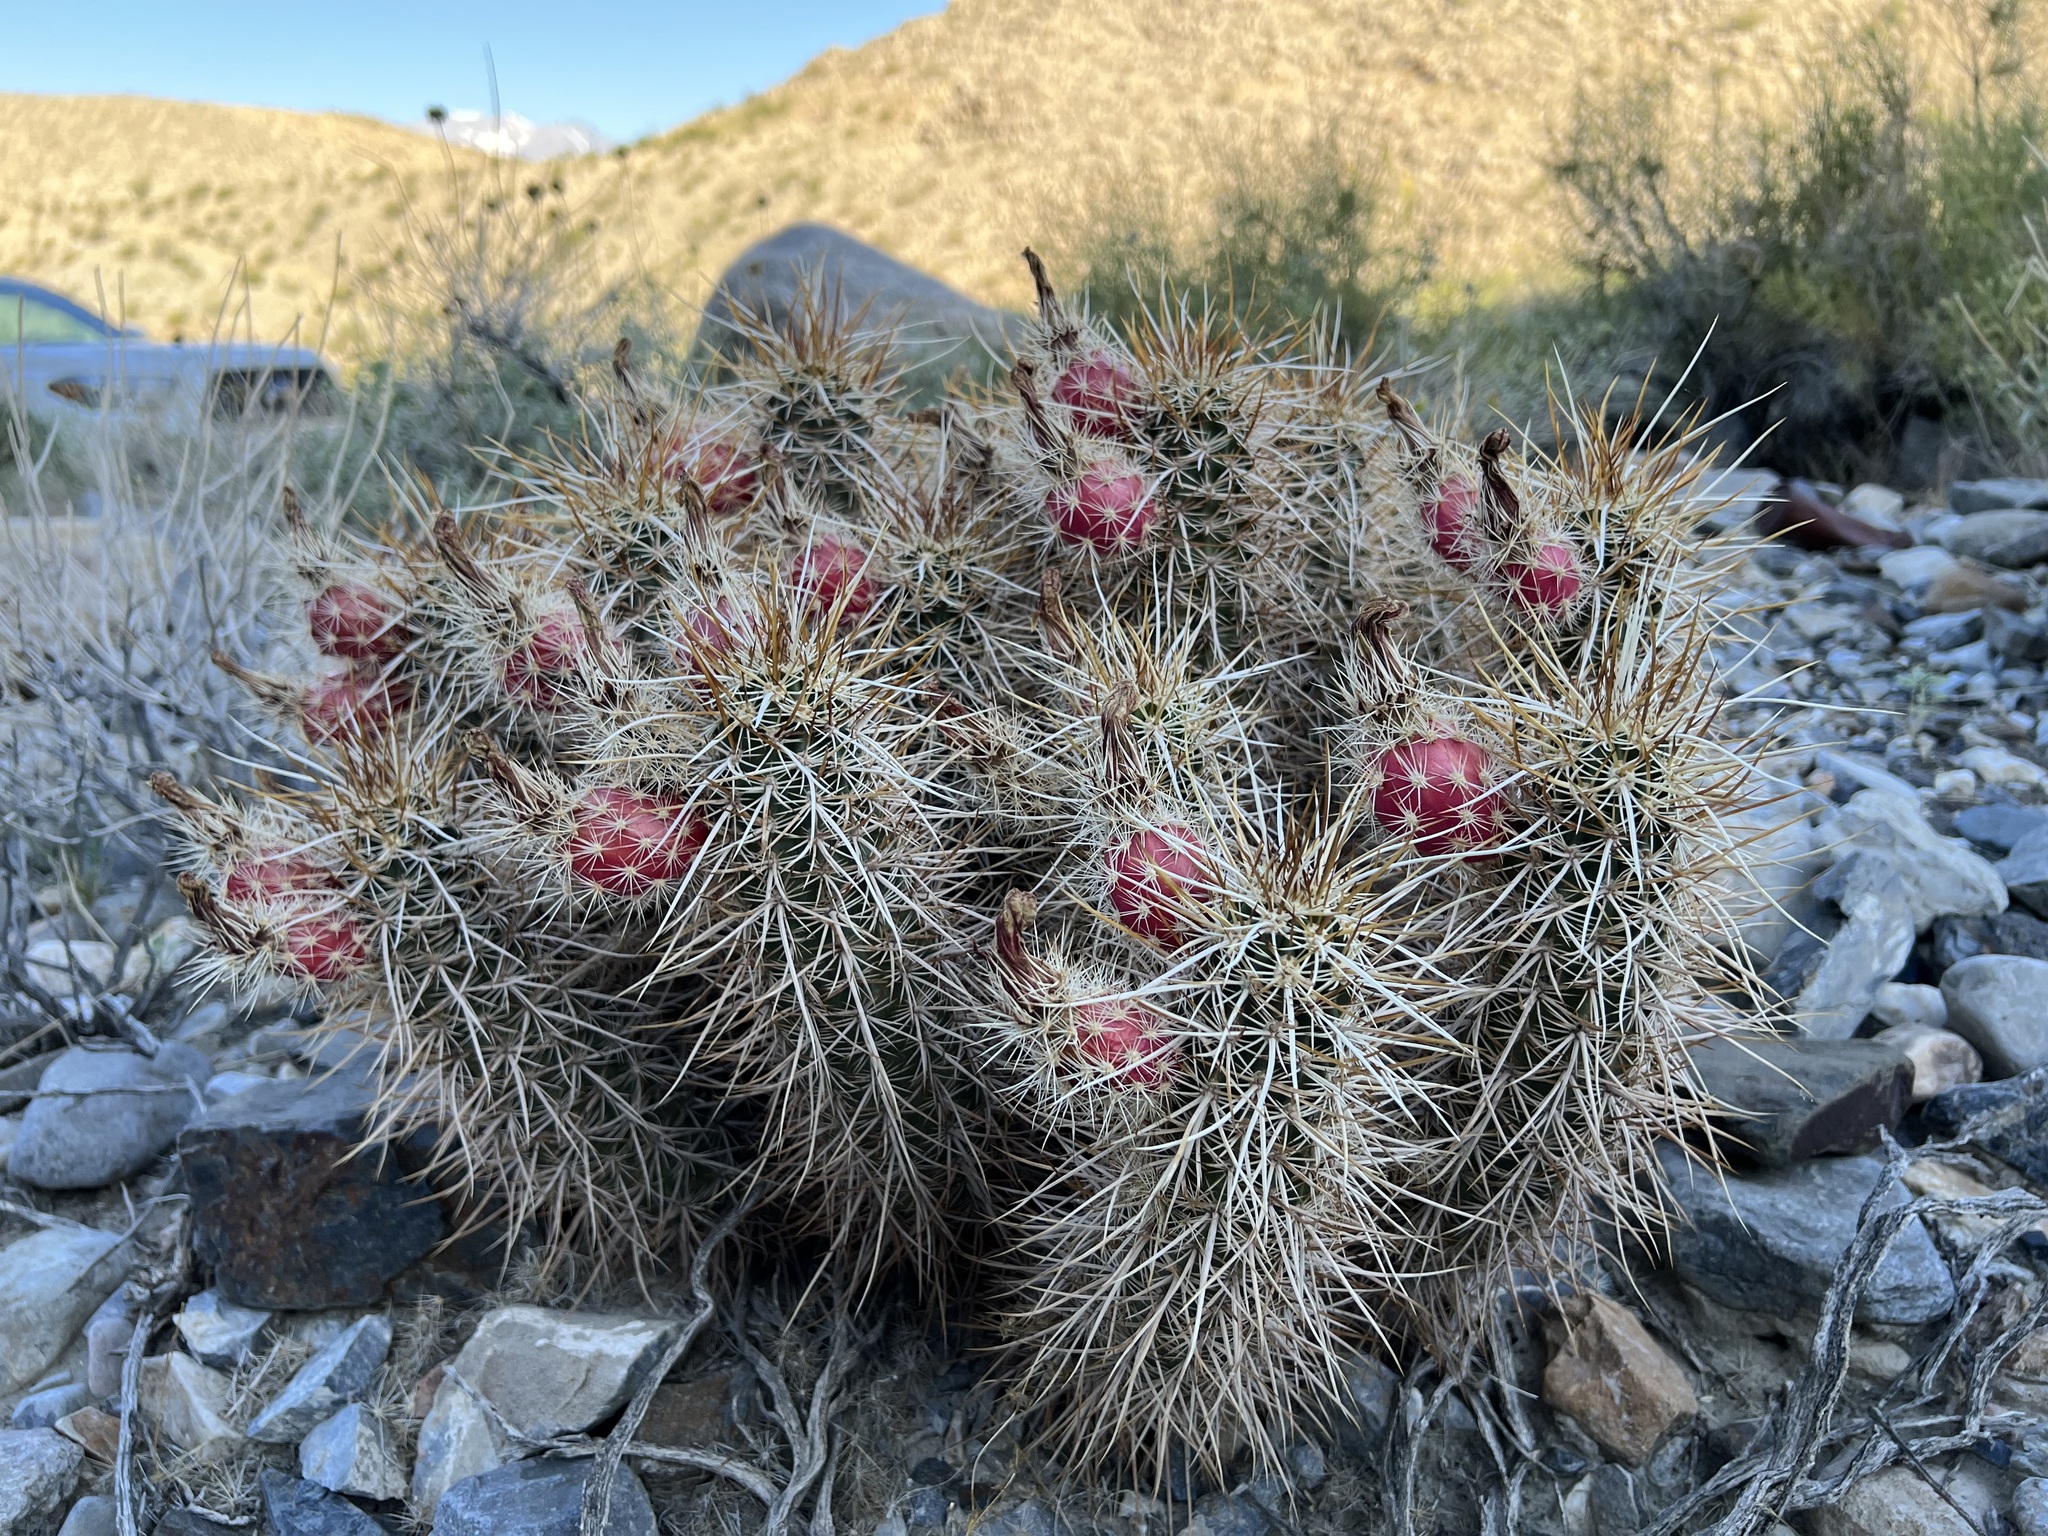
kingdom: Plantae
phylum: Tracheophyta
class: Magnoliopsida
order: Caryophyllales
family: Cactaceae
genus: Echinocereus
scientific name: Echinocereus engelmannii
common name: Engelmann's hedgehog cactus
